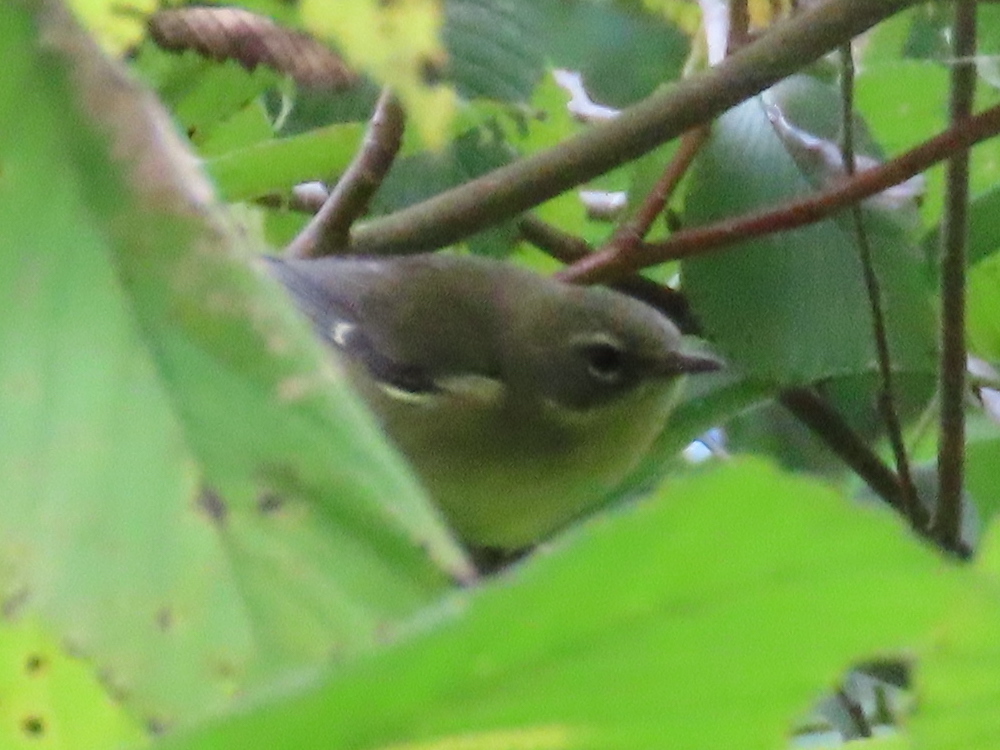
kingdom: Animalia
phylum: Chordata
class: Aves
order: Passeriformes
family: Parulidae
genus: Setophaga
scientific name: Setophaga caerulescens
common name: Black-throated blue warbler
